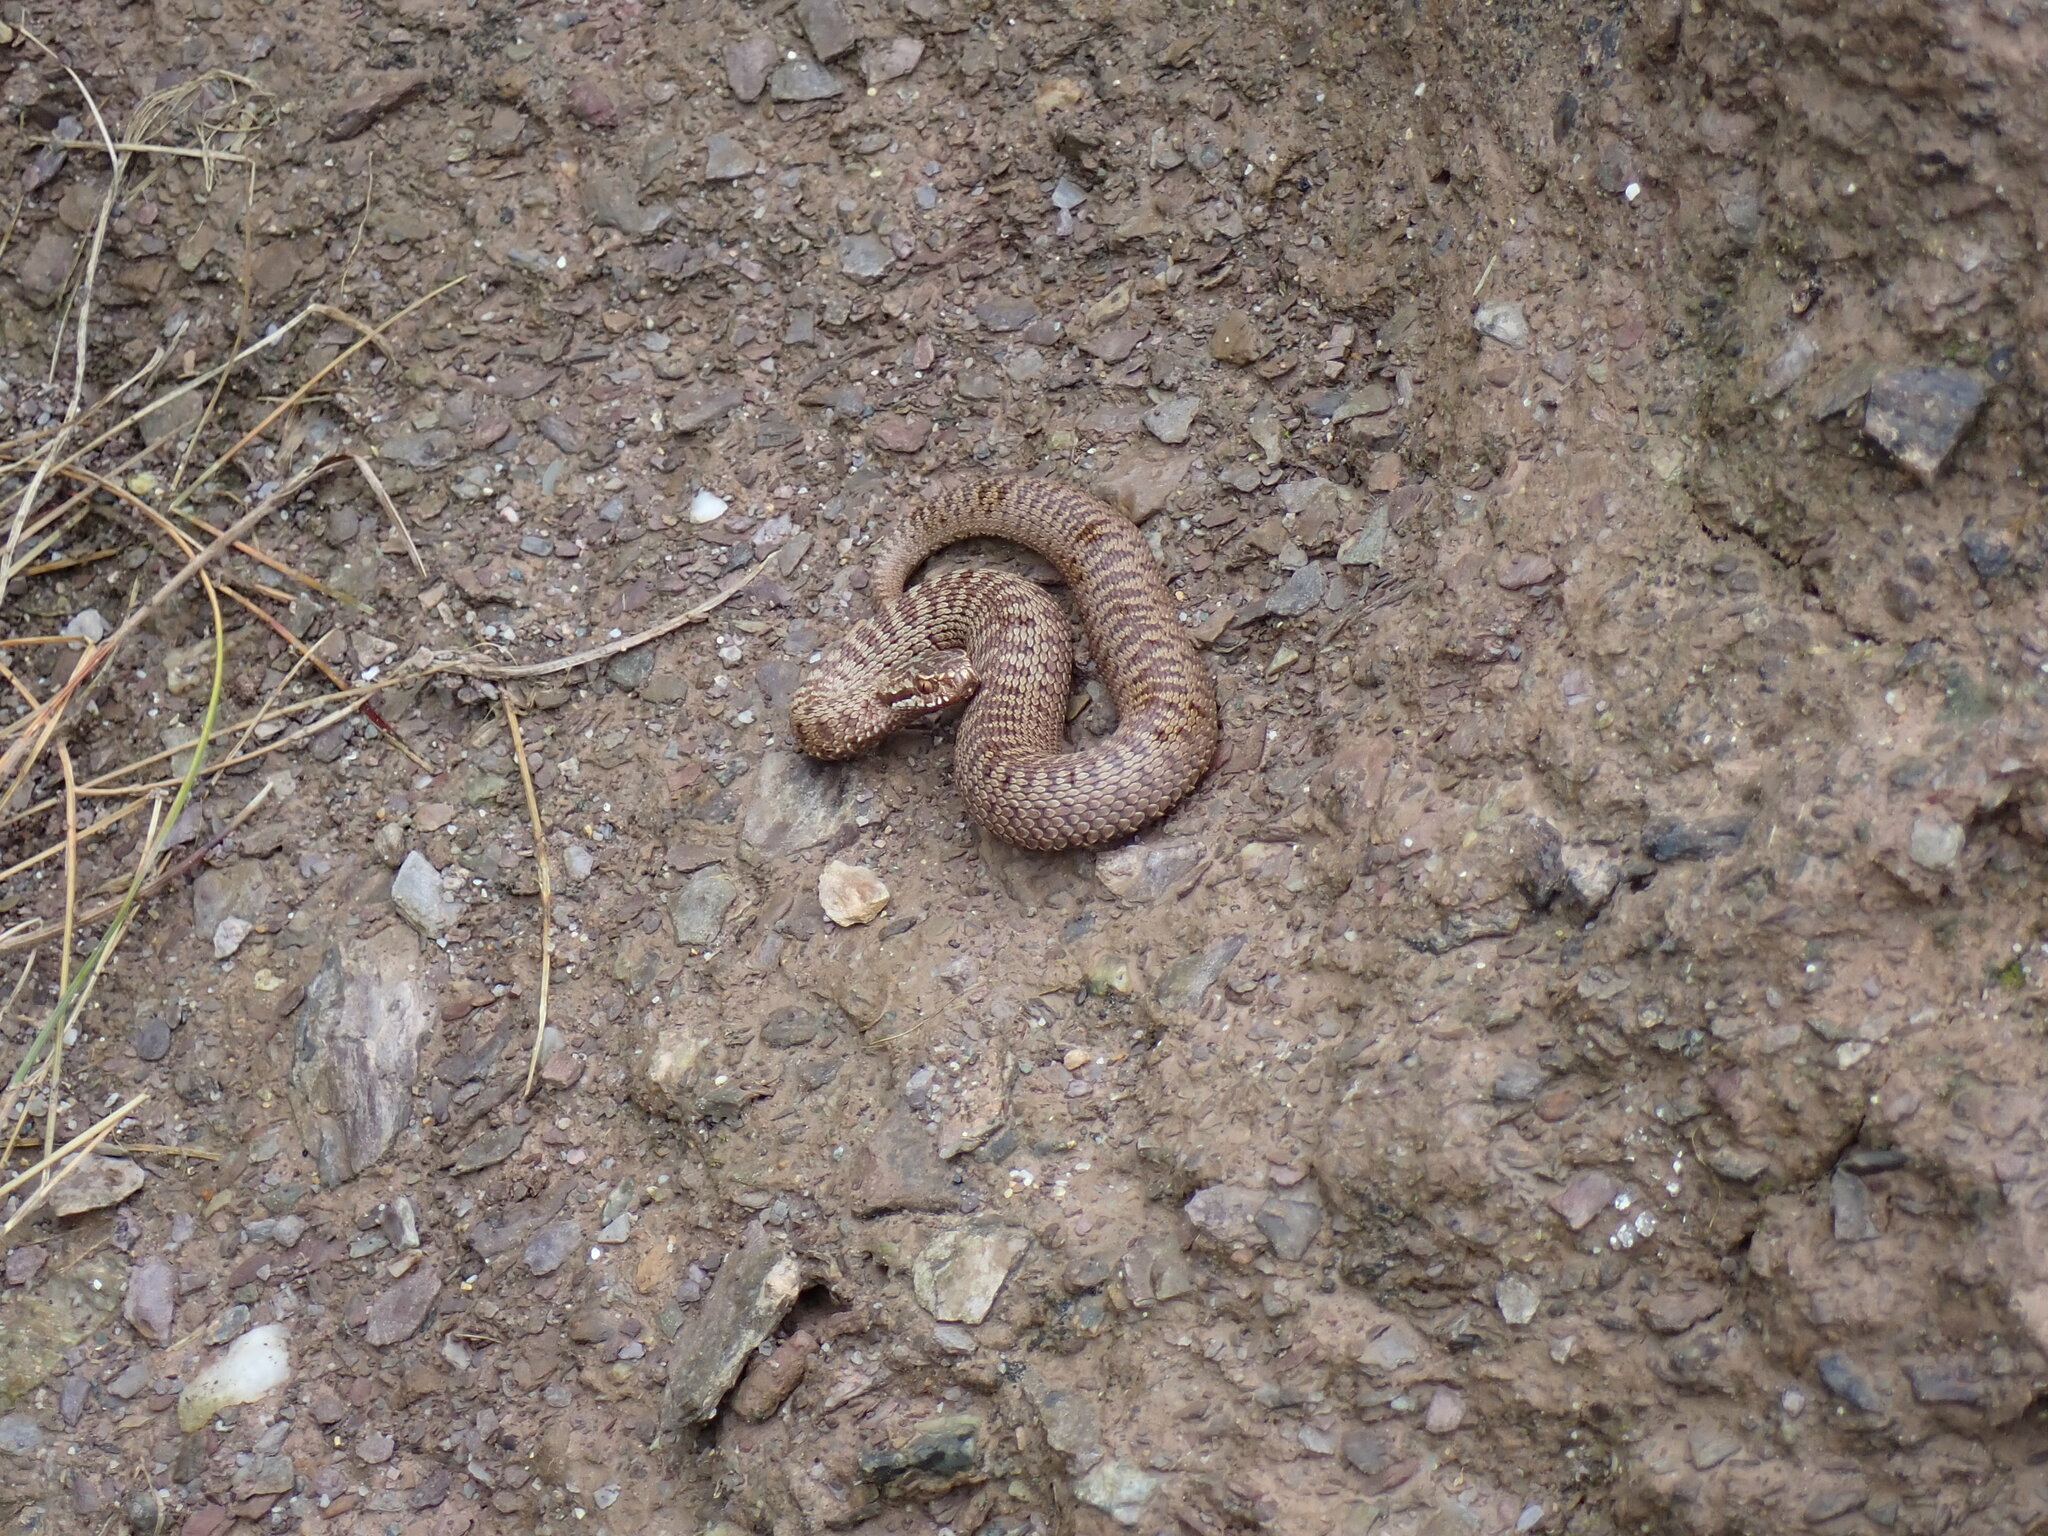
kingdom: Animalia
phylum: Chordata
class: Squamata
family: Viperidae
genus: Vipera
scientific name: Vipera berus
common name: Adder
